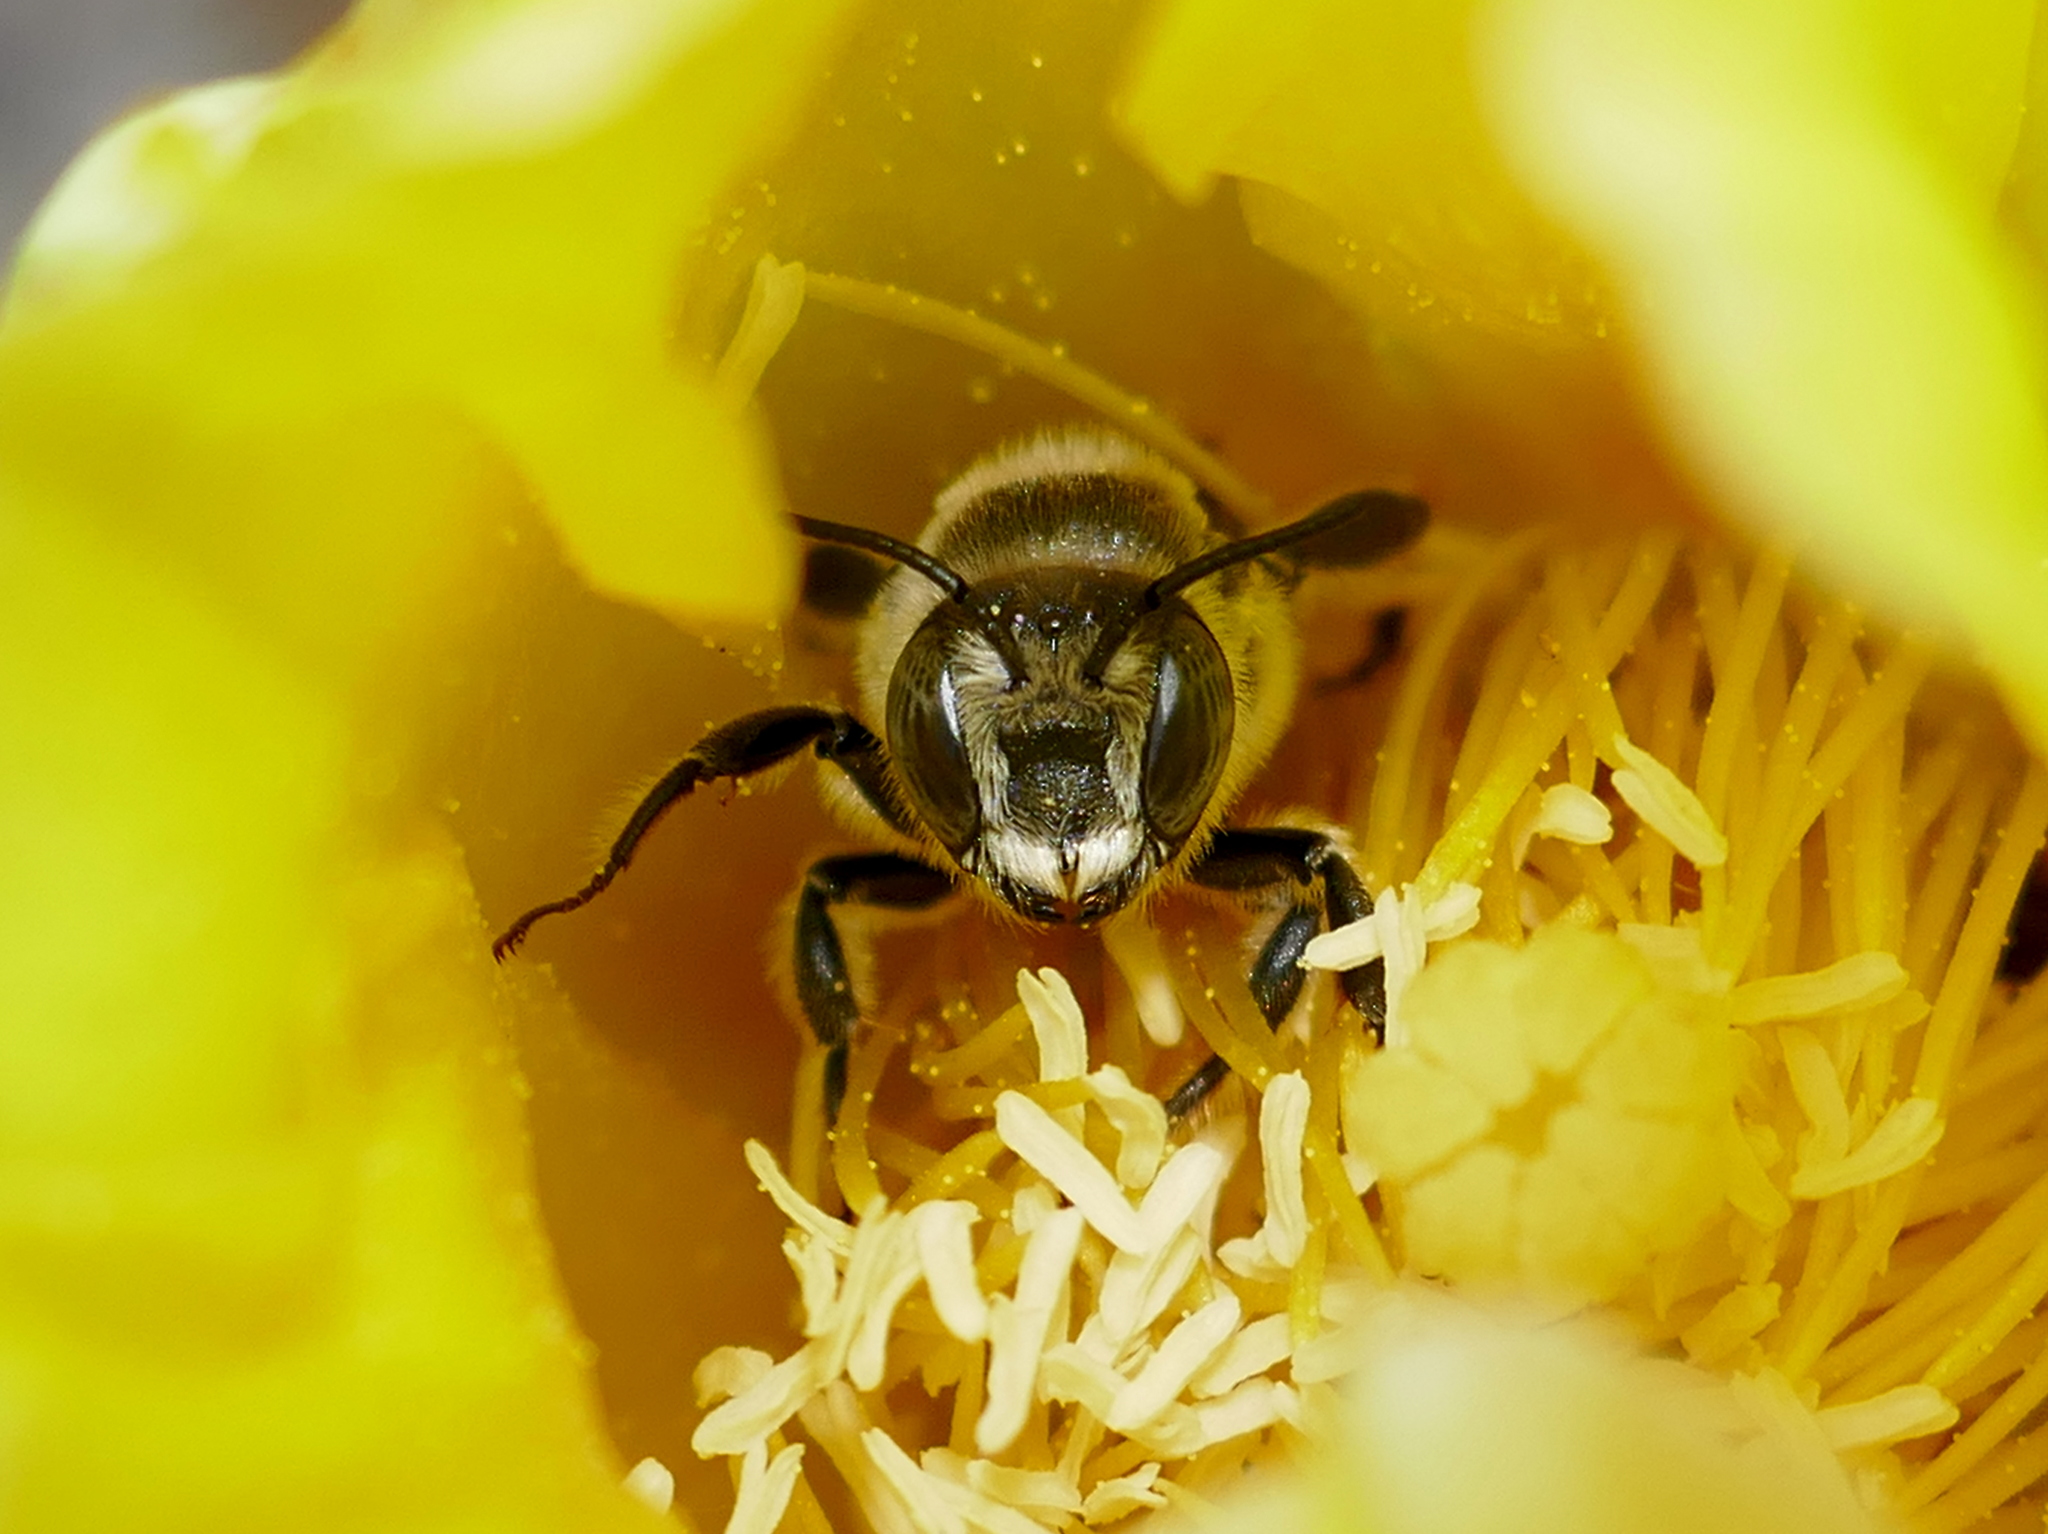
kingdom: Animalia
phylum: Arthropoda
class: Insecta
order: Hymenoptera
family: Megachilidae
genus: Lithurgopsis
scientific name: Lithurgopsis gibbosa
